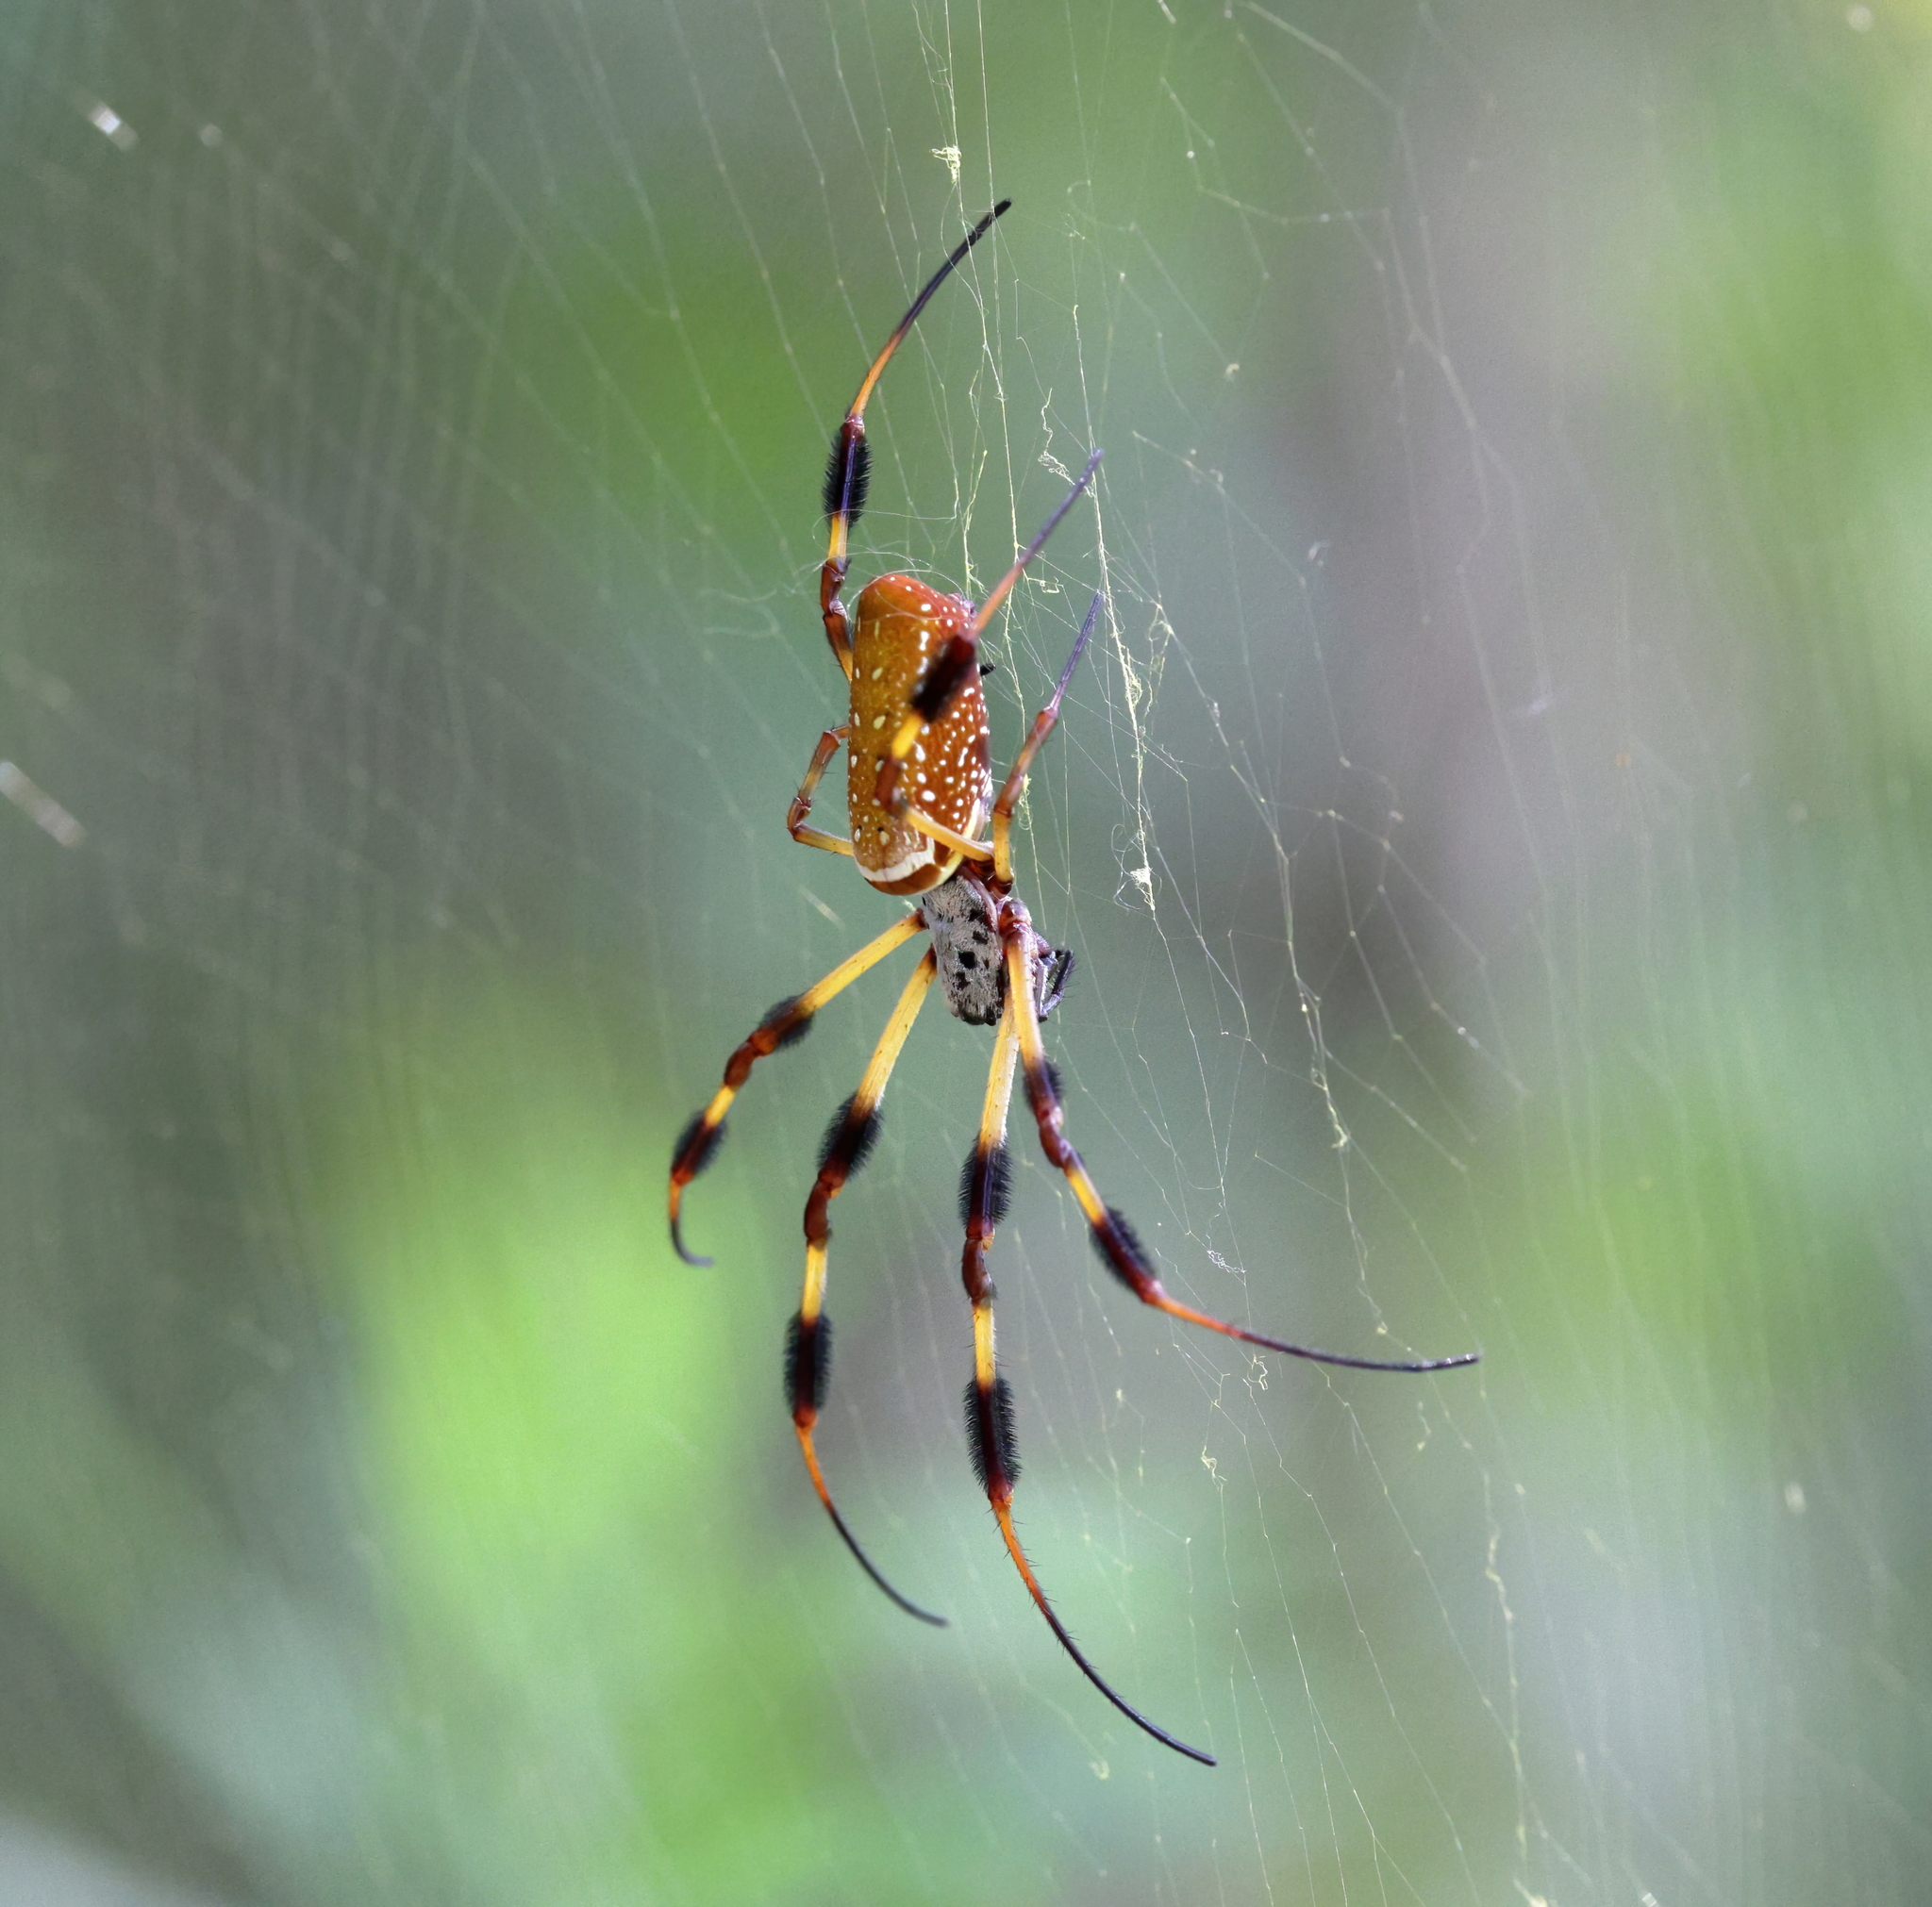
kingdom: Animalia
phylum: Arthropoda
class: Arachnida
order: Araneae
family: Araneidae
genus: Trichonephila
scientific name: Trichonephila clavipes
